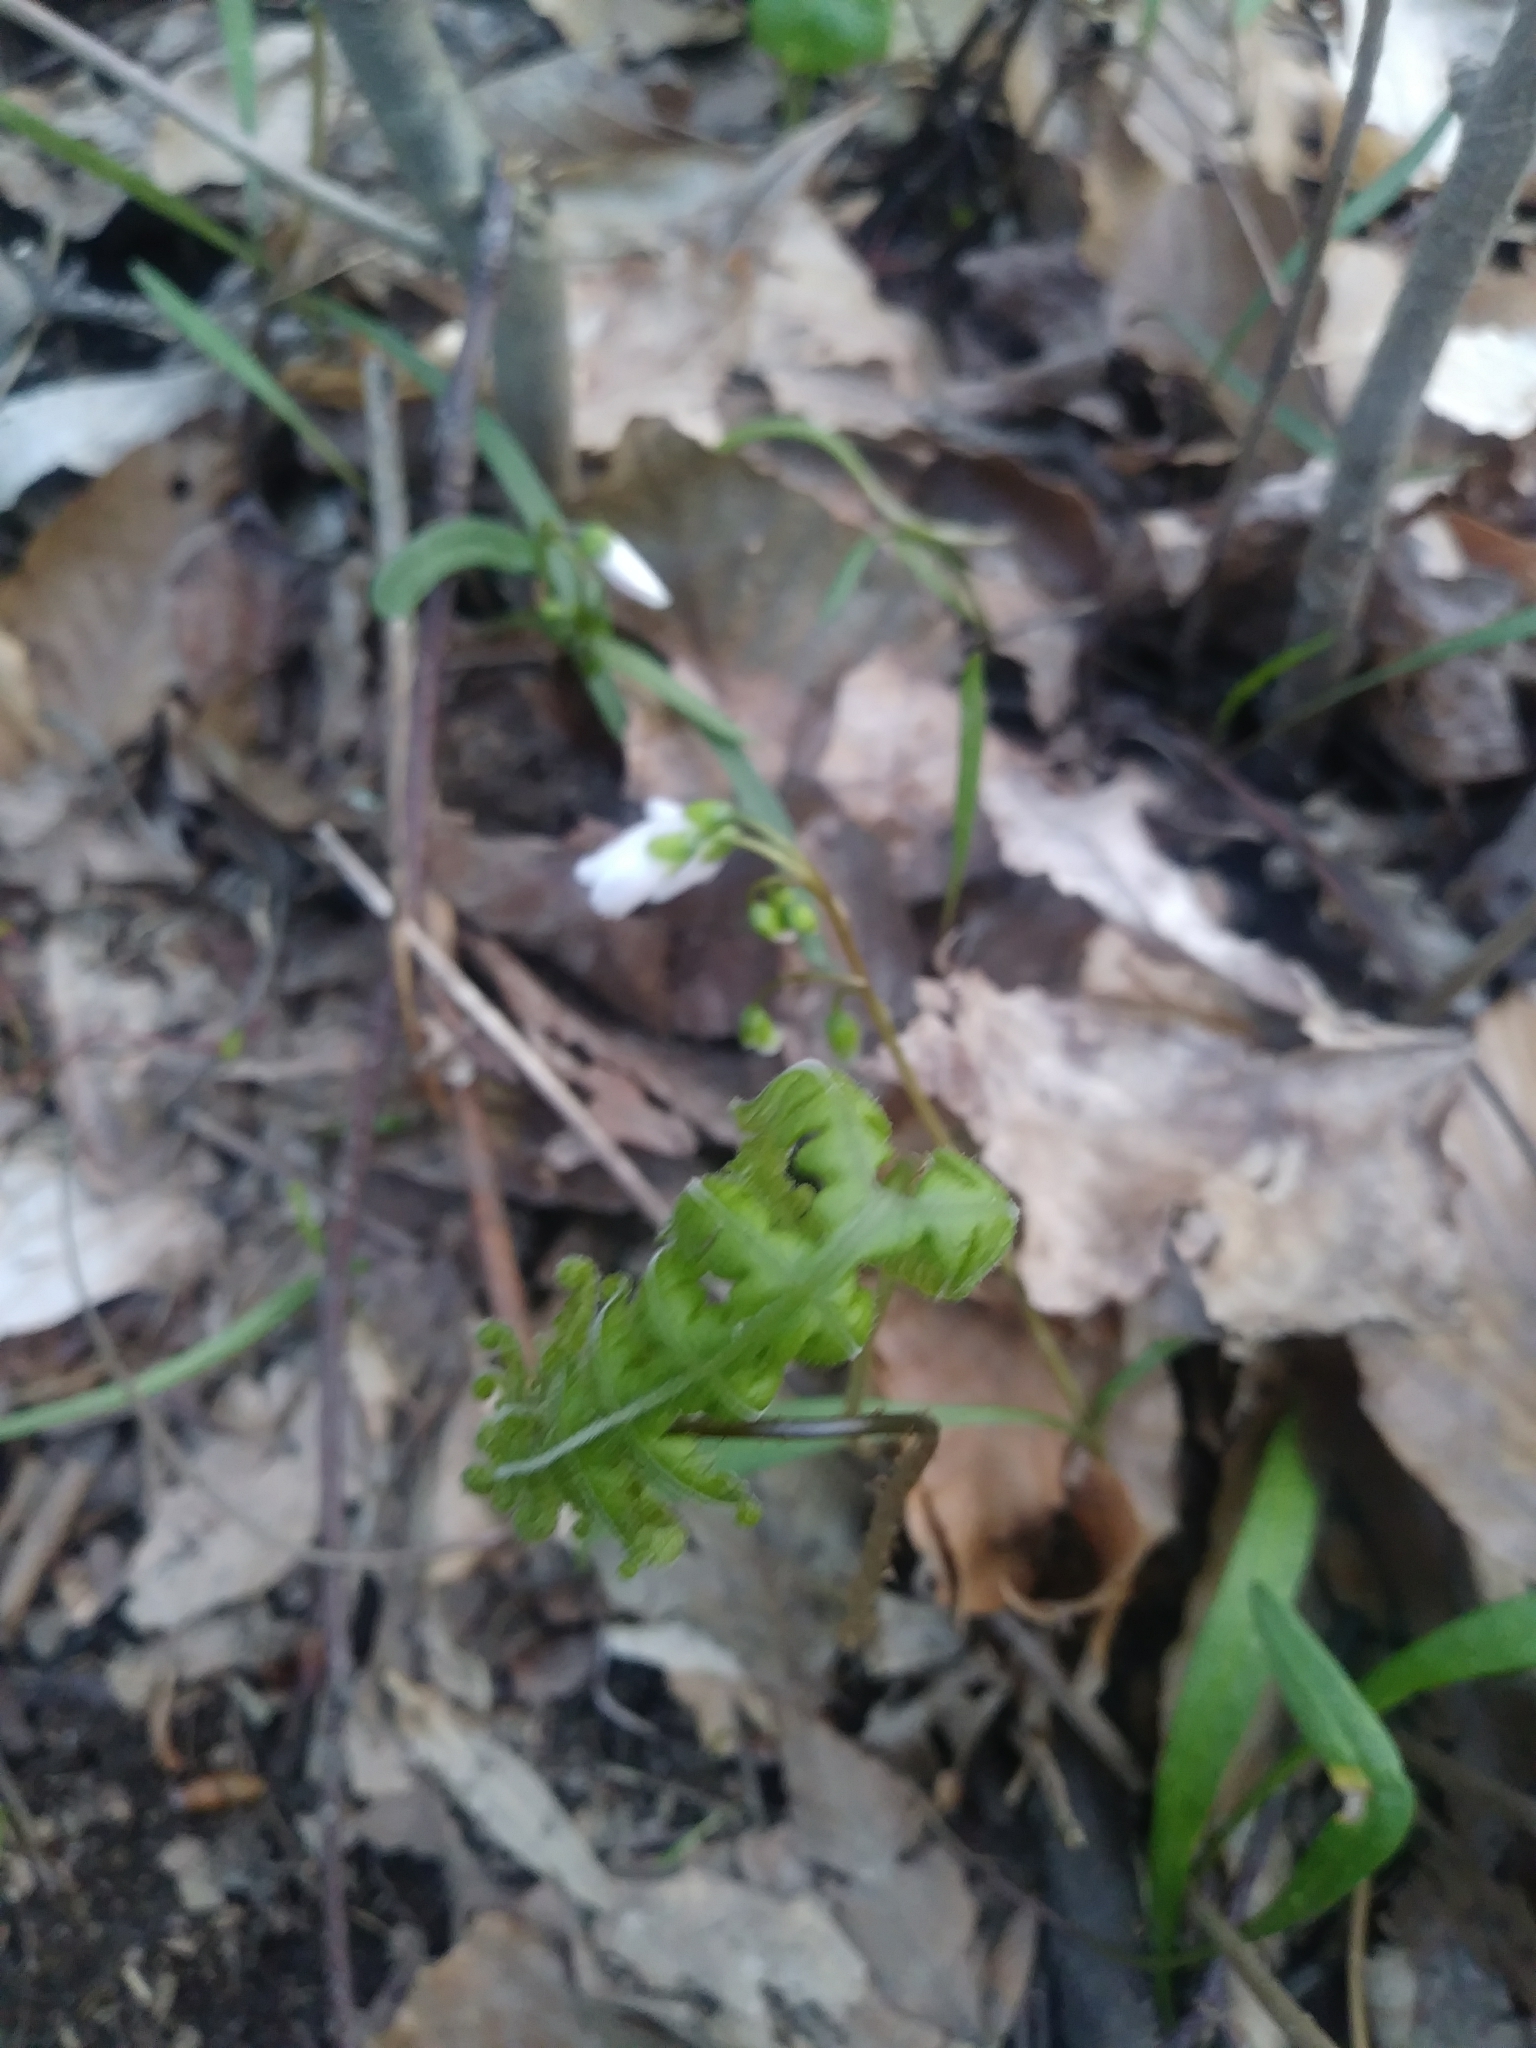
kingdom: Plantae
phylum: Tracheophyta
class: Polypodiopsida
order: Polypodiales
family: Thelypteridaceae
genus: Phegopteris
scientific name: Phegopteris hexagonoptera
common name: Broad beech fern
